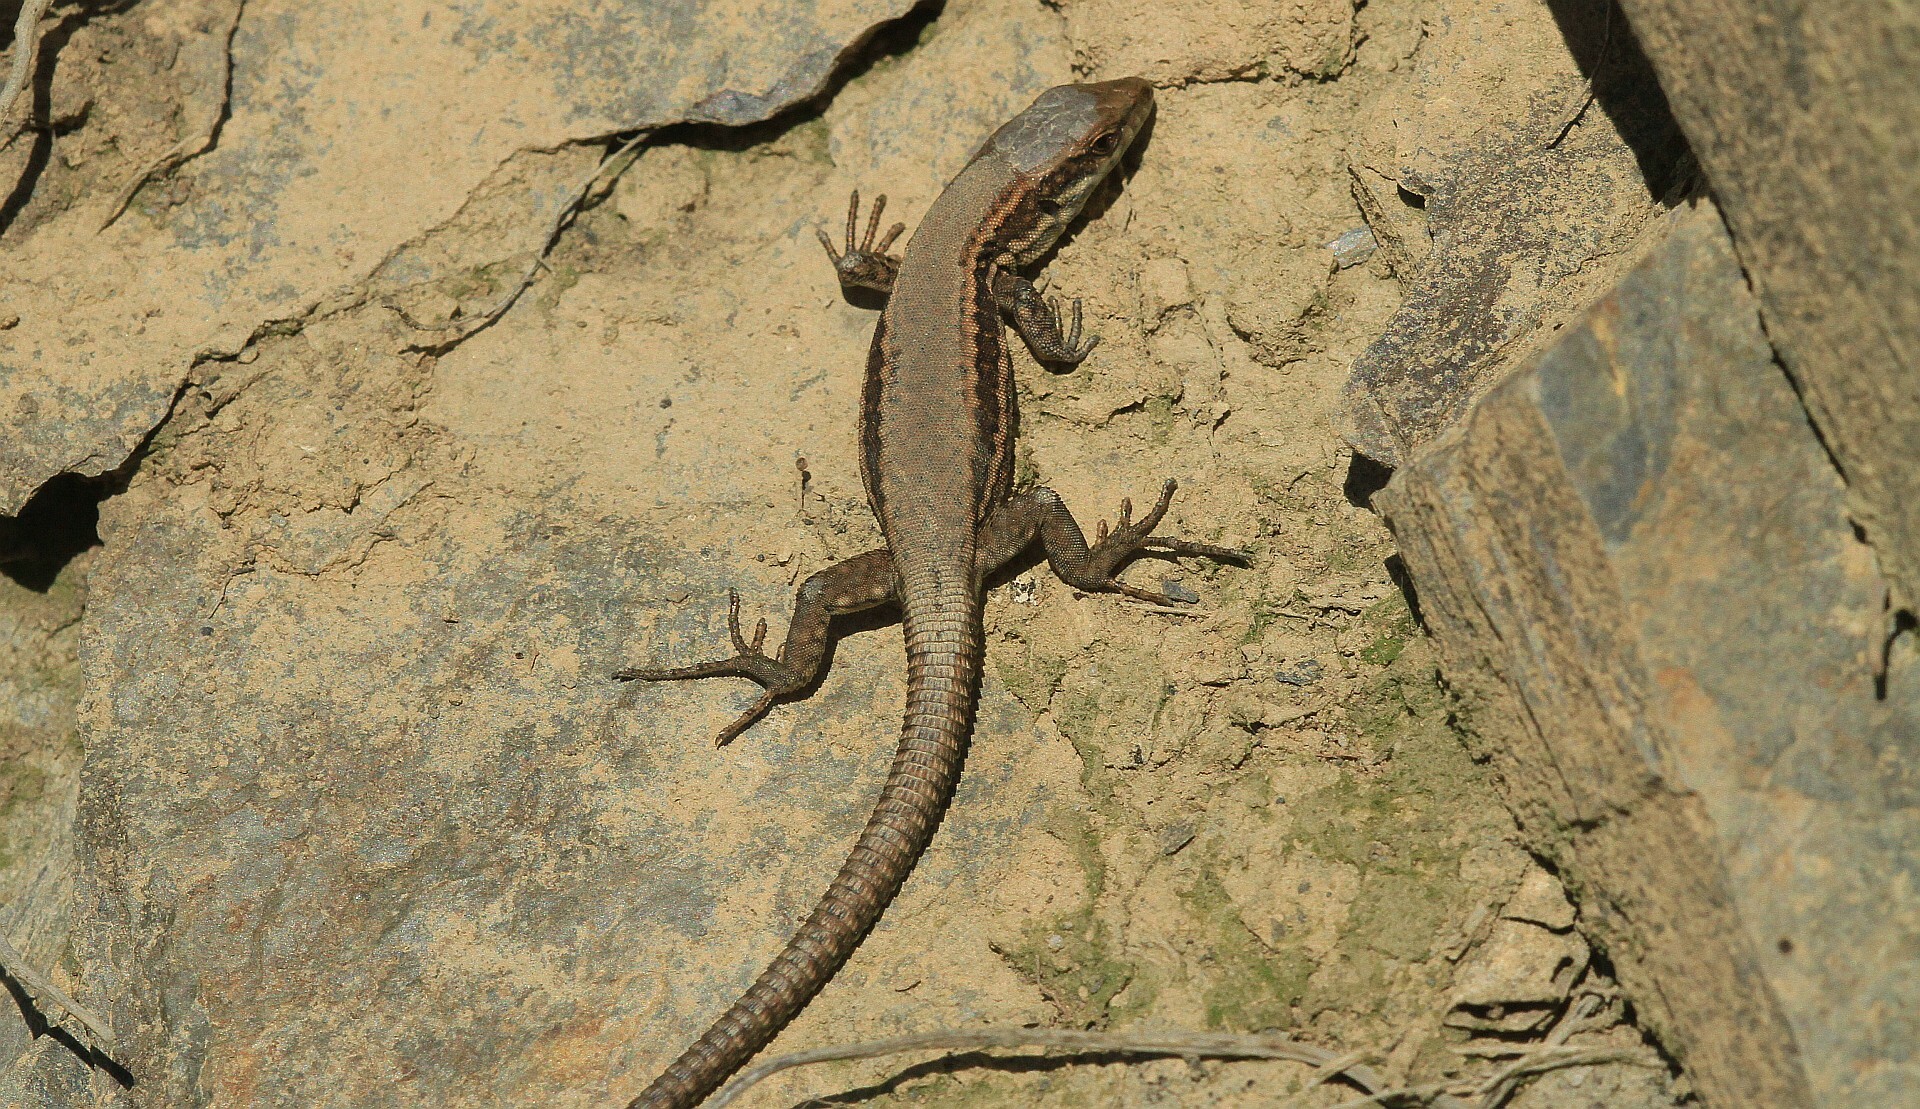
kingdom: Animalia
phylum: Chordata
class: Squamata
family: Lacertidae
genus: Podarcis
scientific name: Podarcis muralis
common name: Common wall lizard
